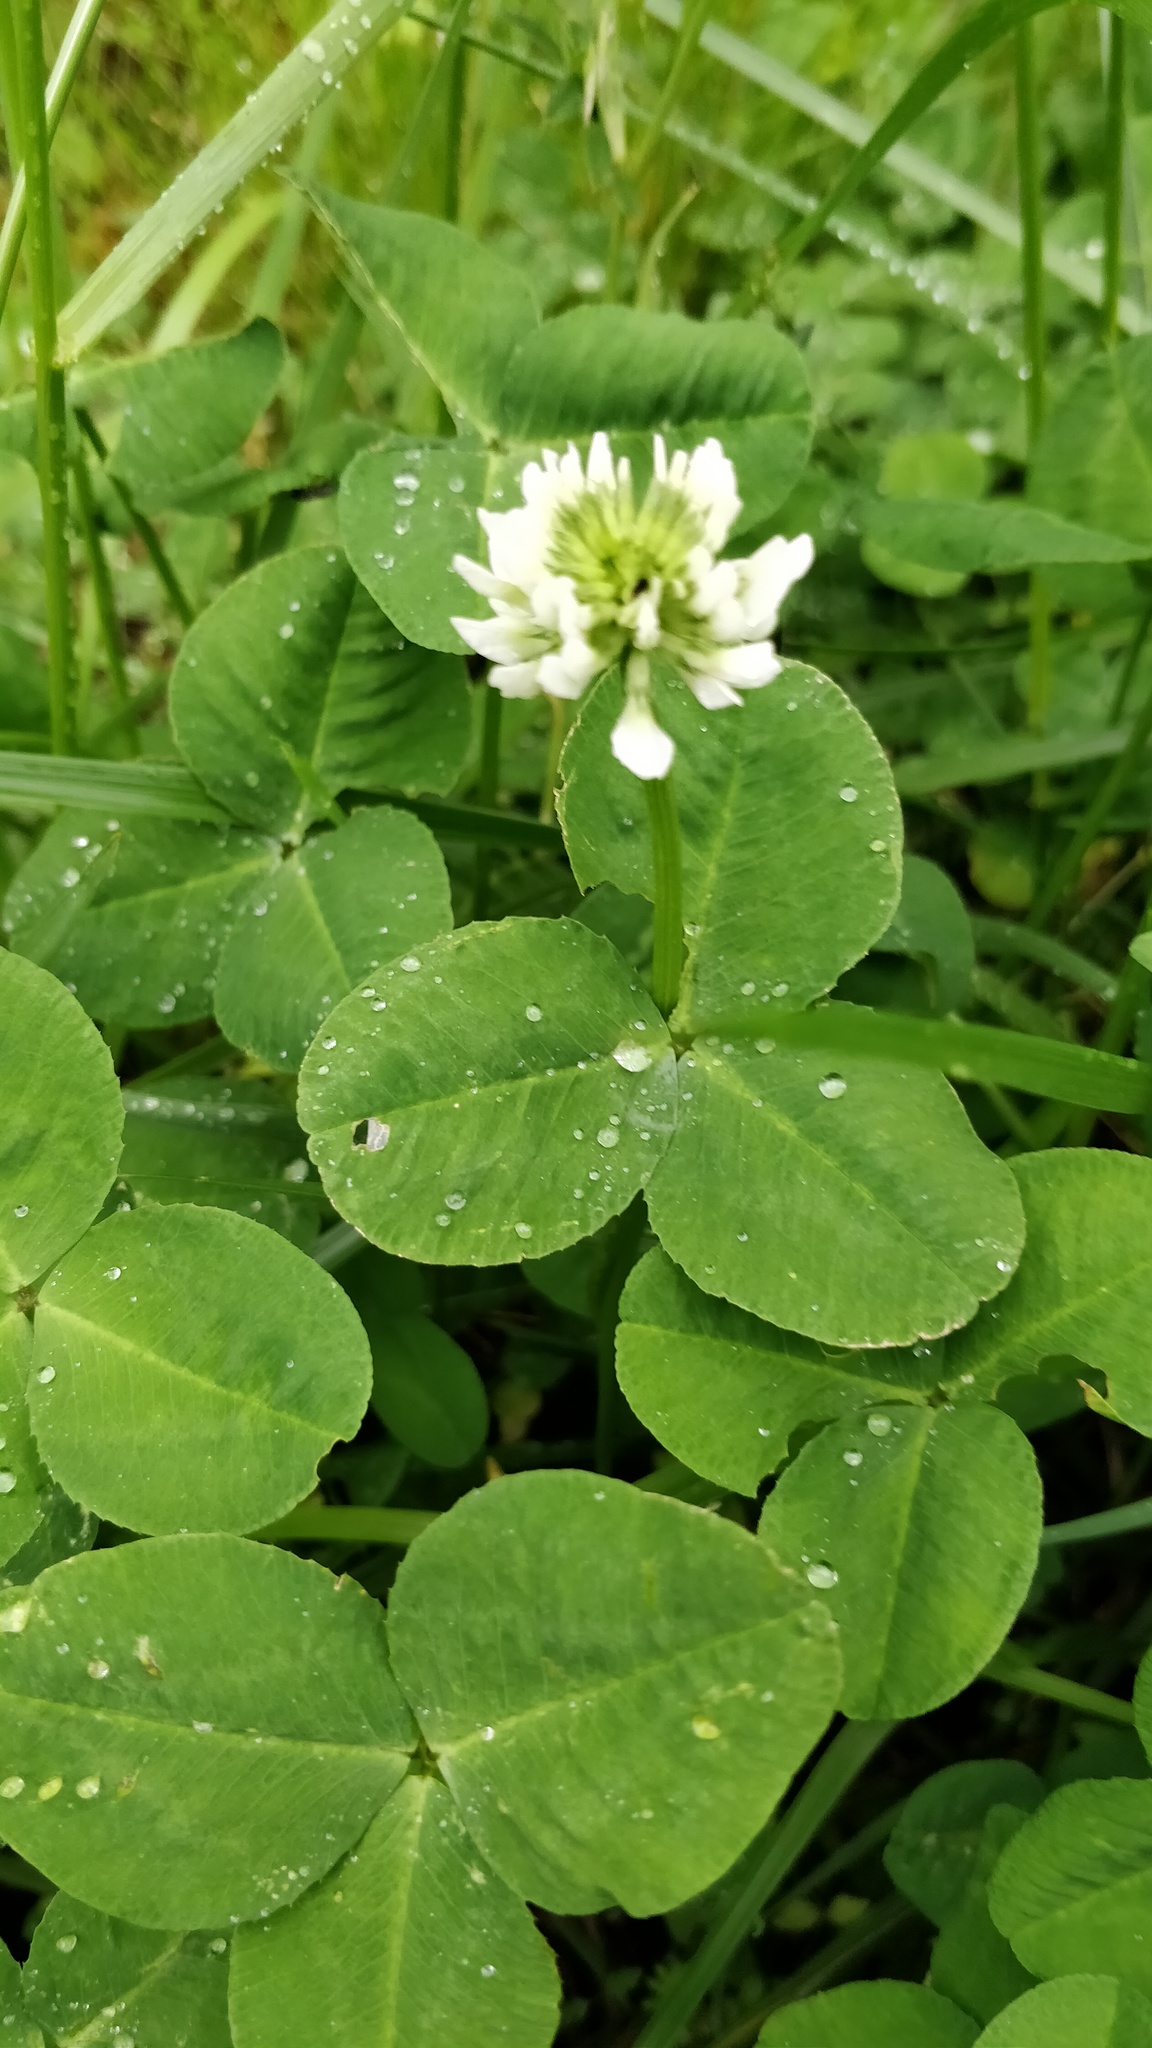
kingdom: Plantae
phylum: Tracheophyta
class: Magnoliopsida
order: Fabales
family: Fabaceae
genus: Trifolium
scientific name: Trifolium repens
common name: White clover
